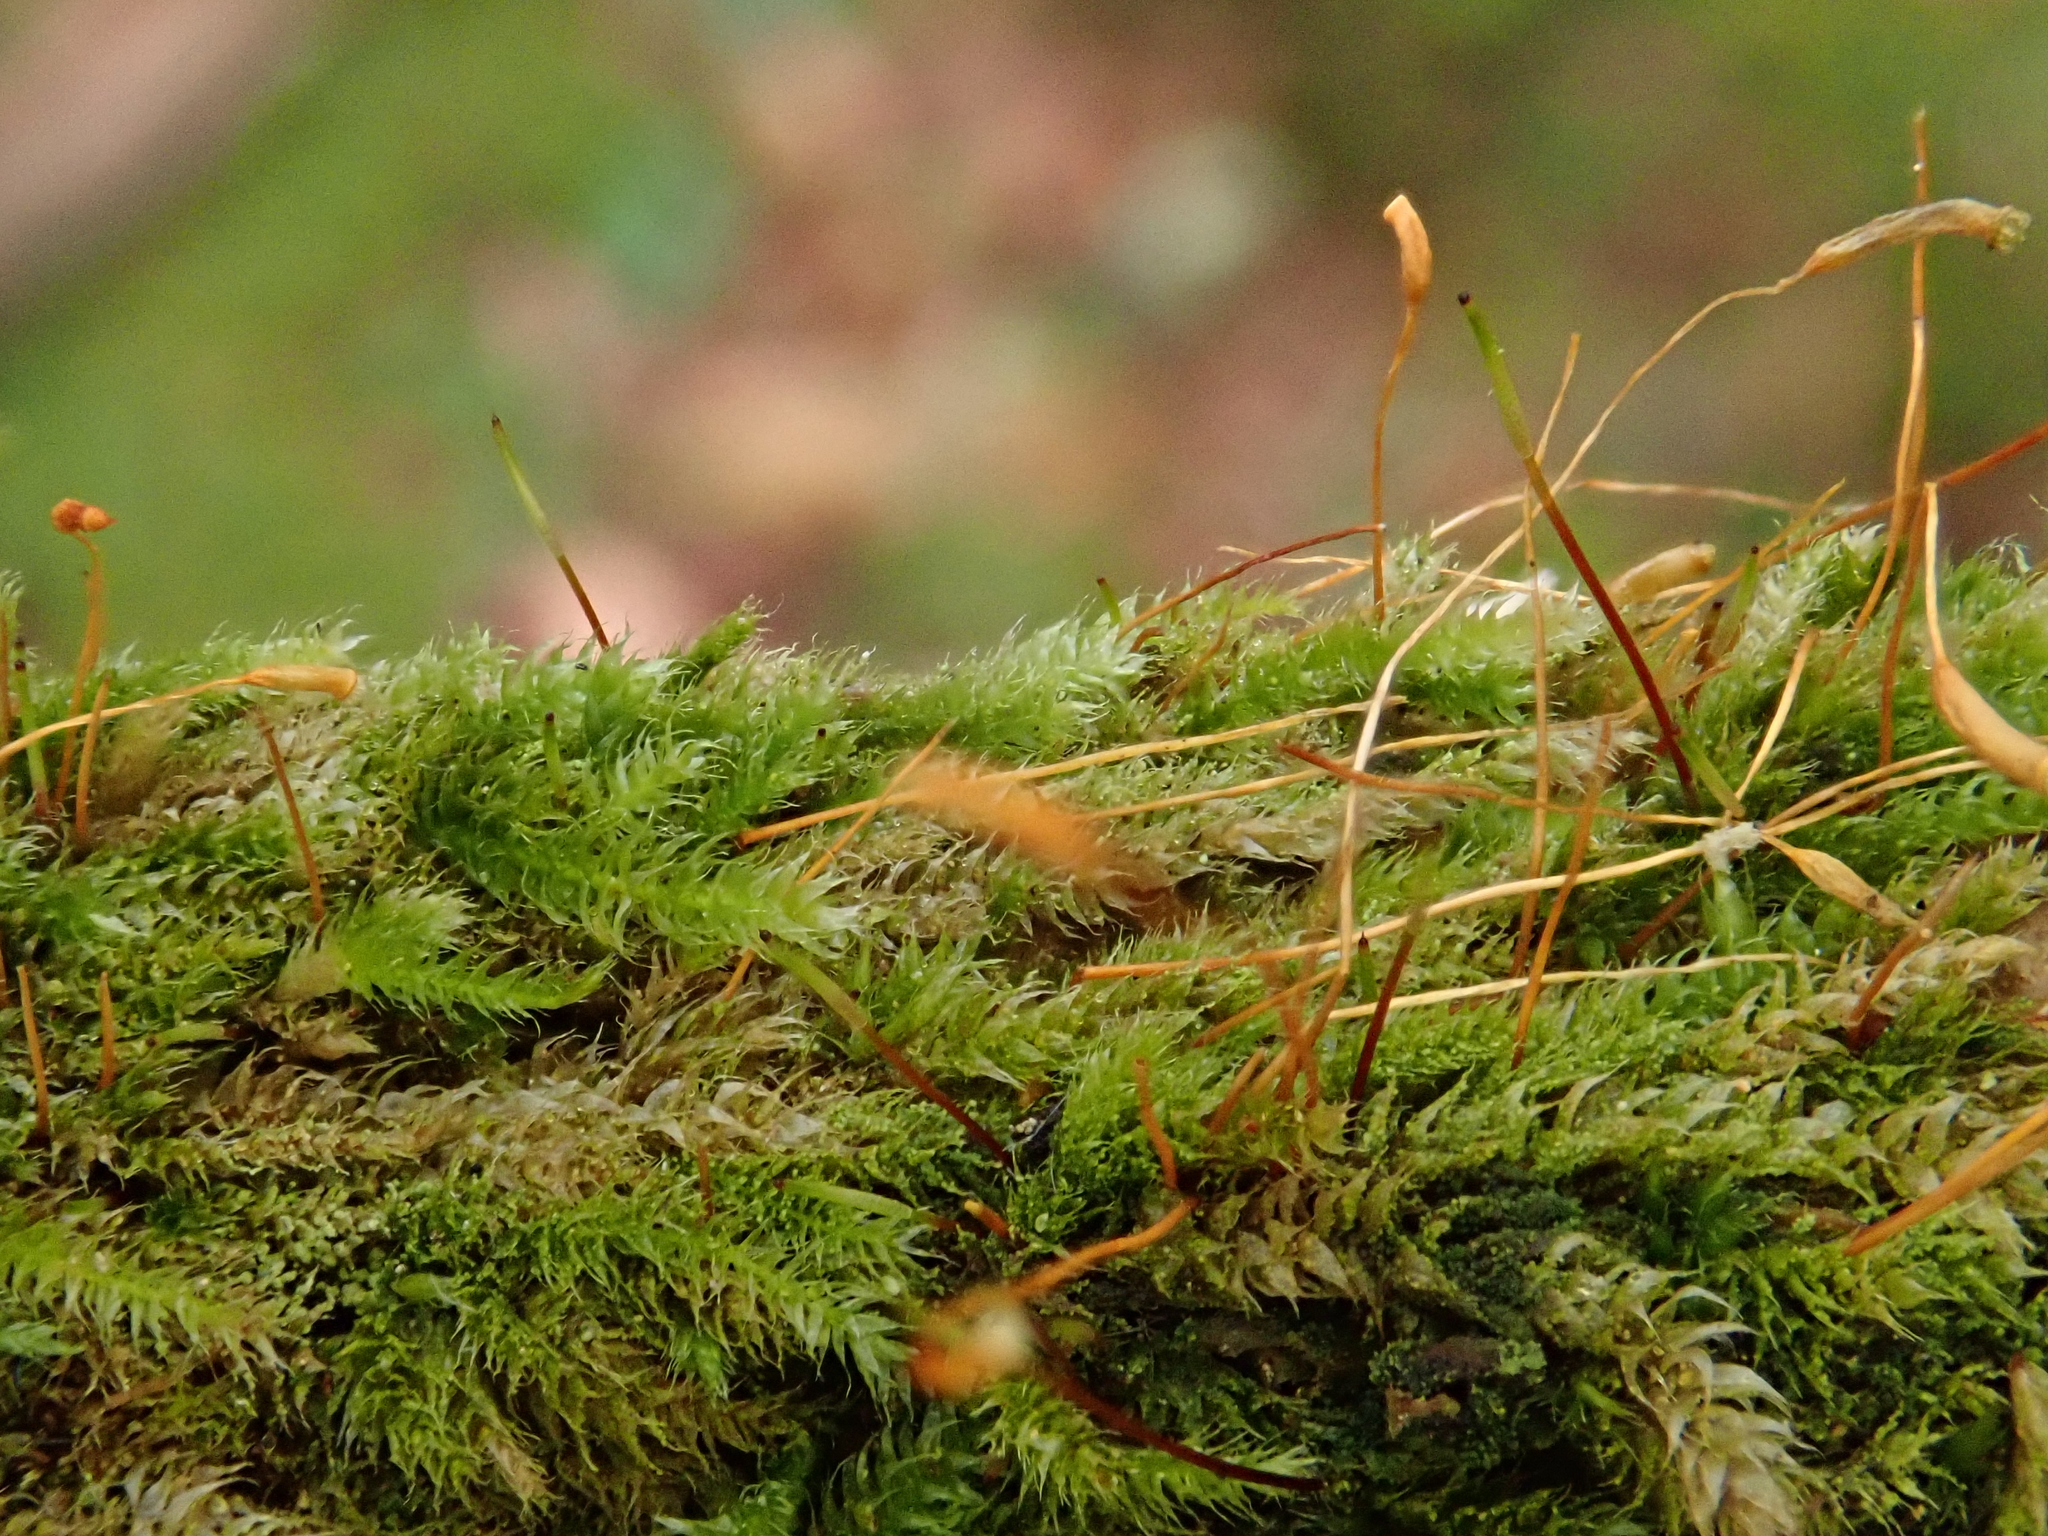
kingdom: Plantae
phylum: Bryophyta
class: Bryopsida
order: Hypnales
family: Plagiotheciaceae
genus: Herzogiella
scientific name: Herzogiella seligeri
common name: Silesian feather-moss
